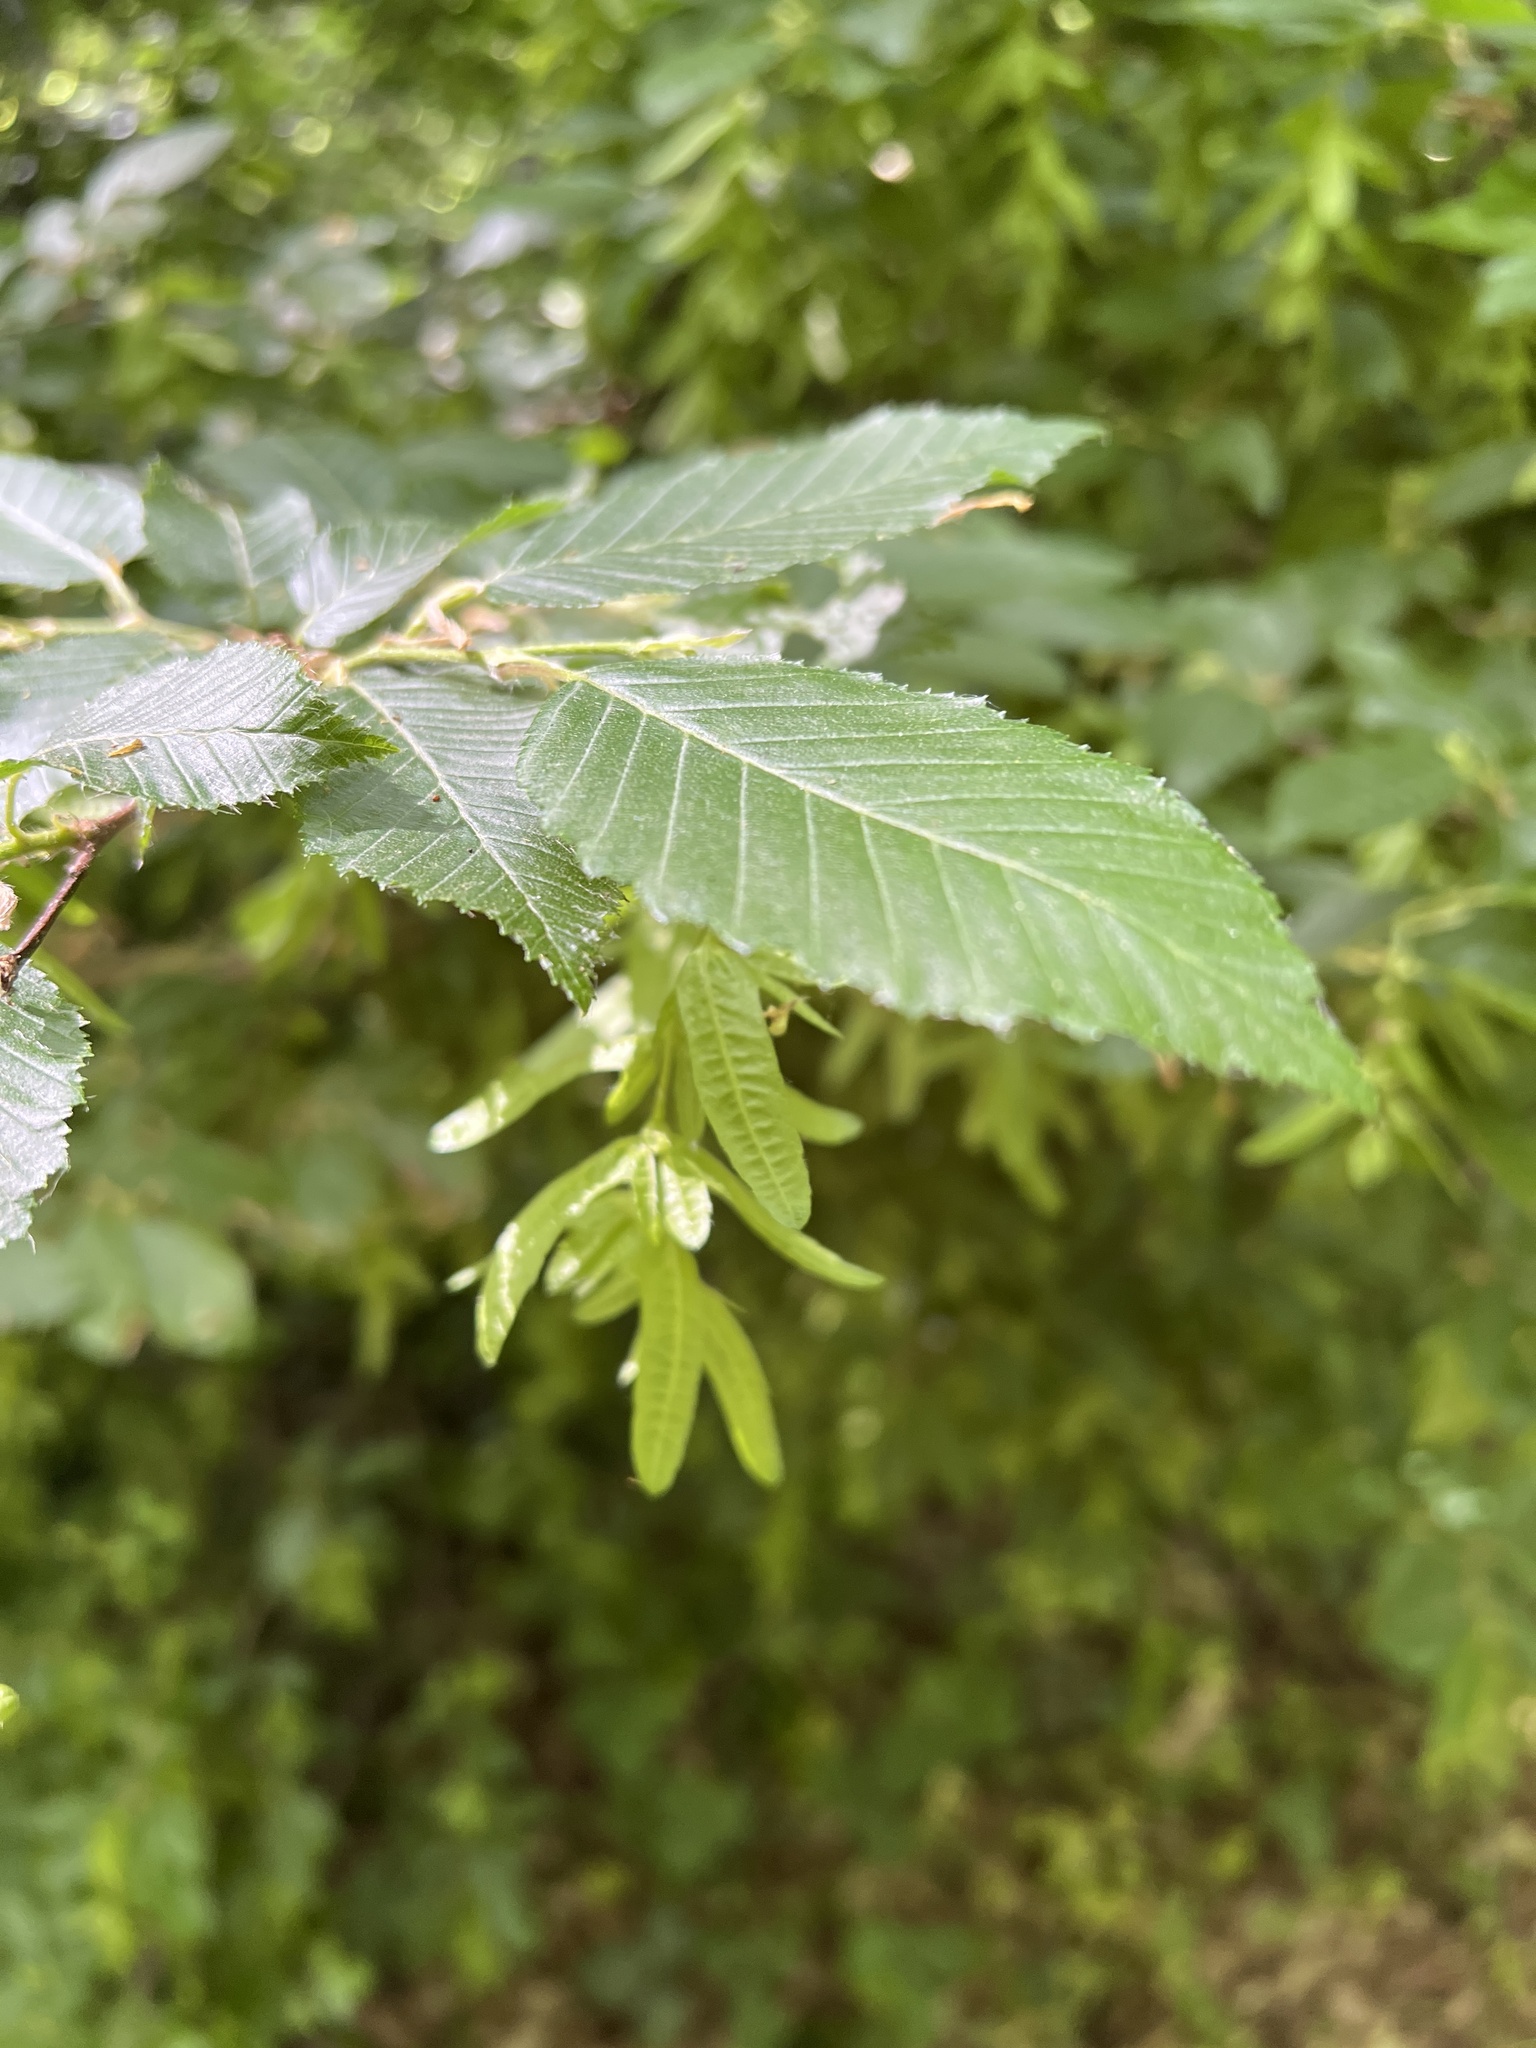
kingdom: Plantae
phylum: Tracheophyta
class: Magnoliopsida
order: Fagales
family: Betulaceae
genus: Carpinus
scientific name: Carpinus betulus
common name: Hornbeam
